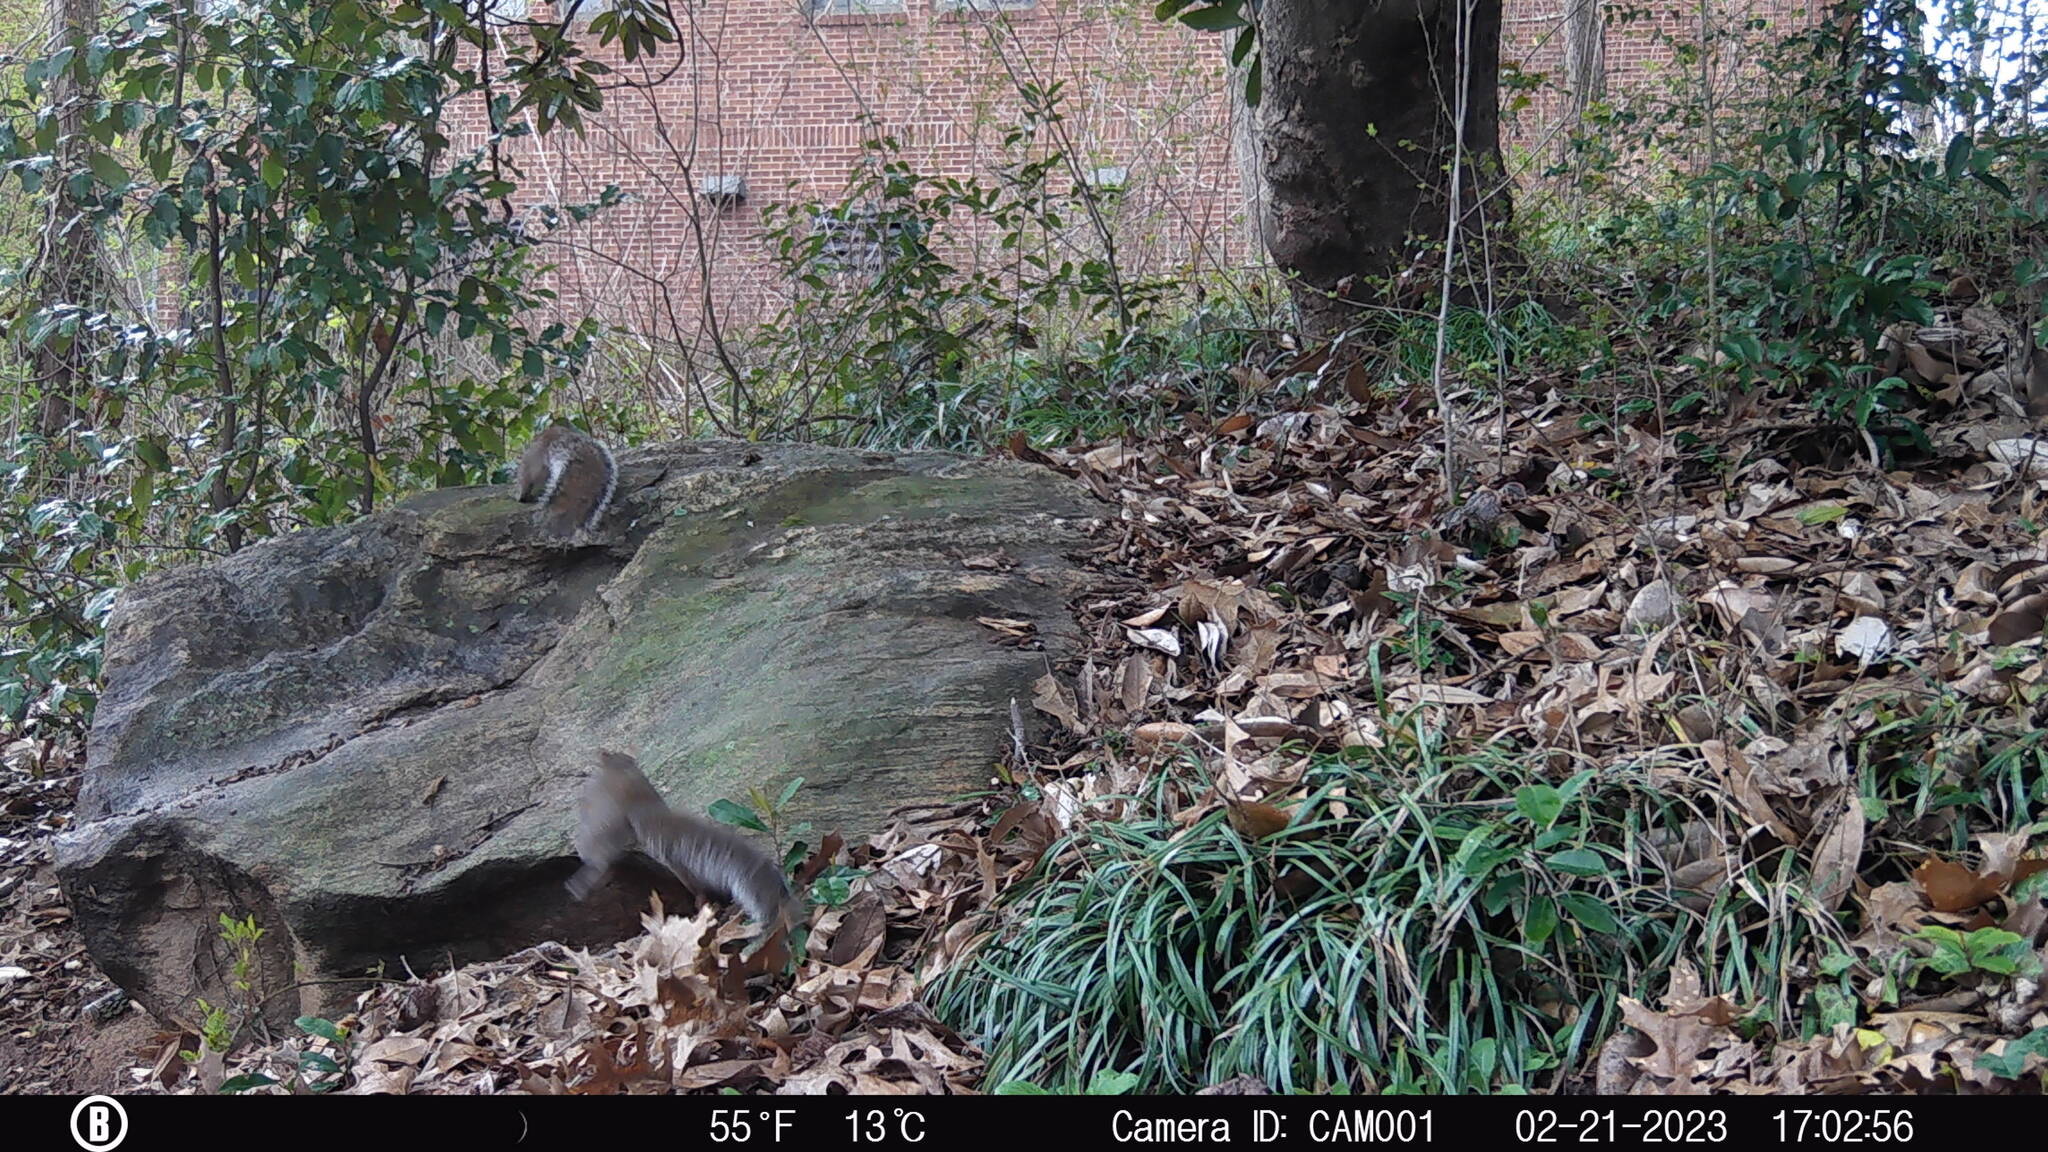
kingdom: Animalia
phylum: Chordata
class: Mammalia
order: Rodentia
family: Sciuridae
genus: Sciurus
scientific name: Sciurus carolinensis
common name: Eastern gray squirrel
